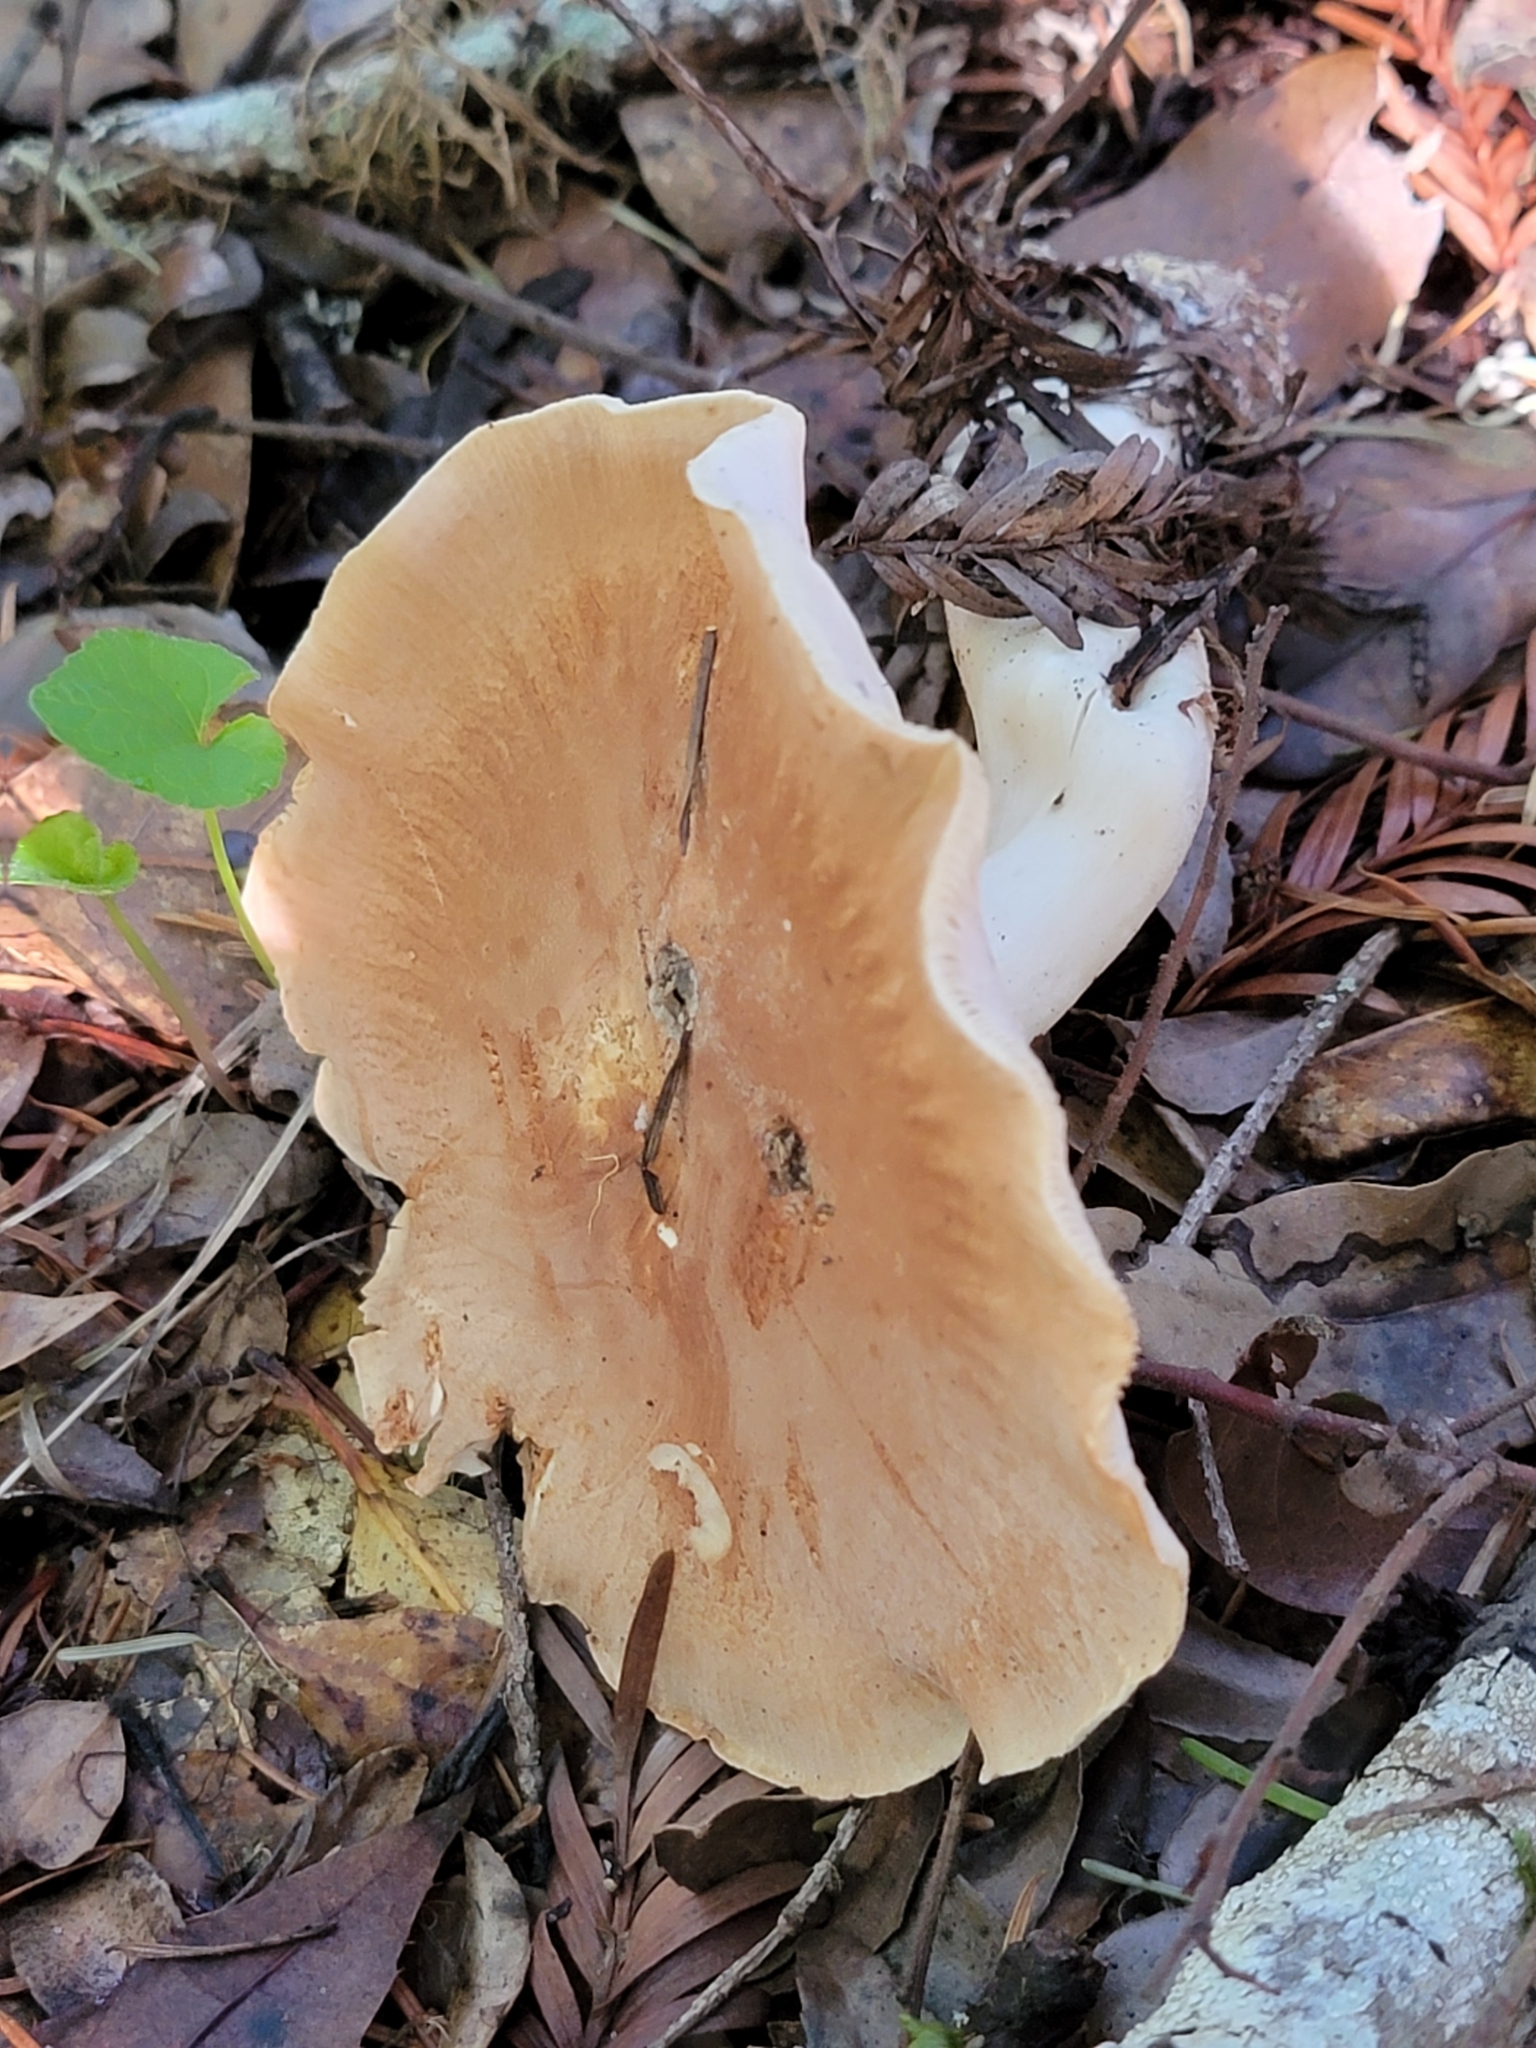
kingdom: Fungi
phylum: Basidiomycota
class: Agaricomycetes
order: Agaricales
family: Tricholomataceae
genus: Leucopaxillus
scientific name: Leucopaxillus gentianeus
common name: Bitter funnel
